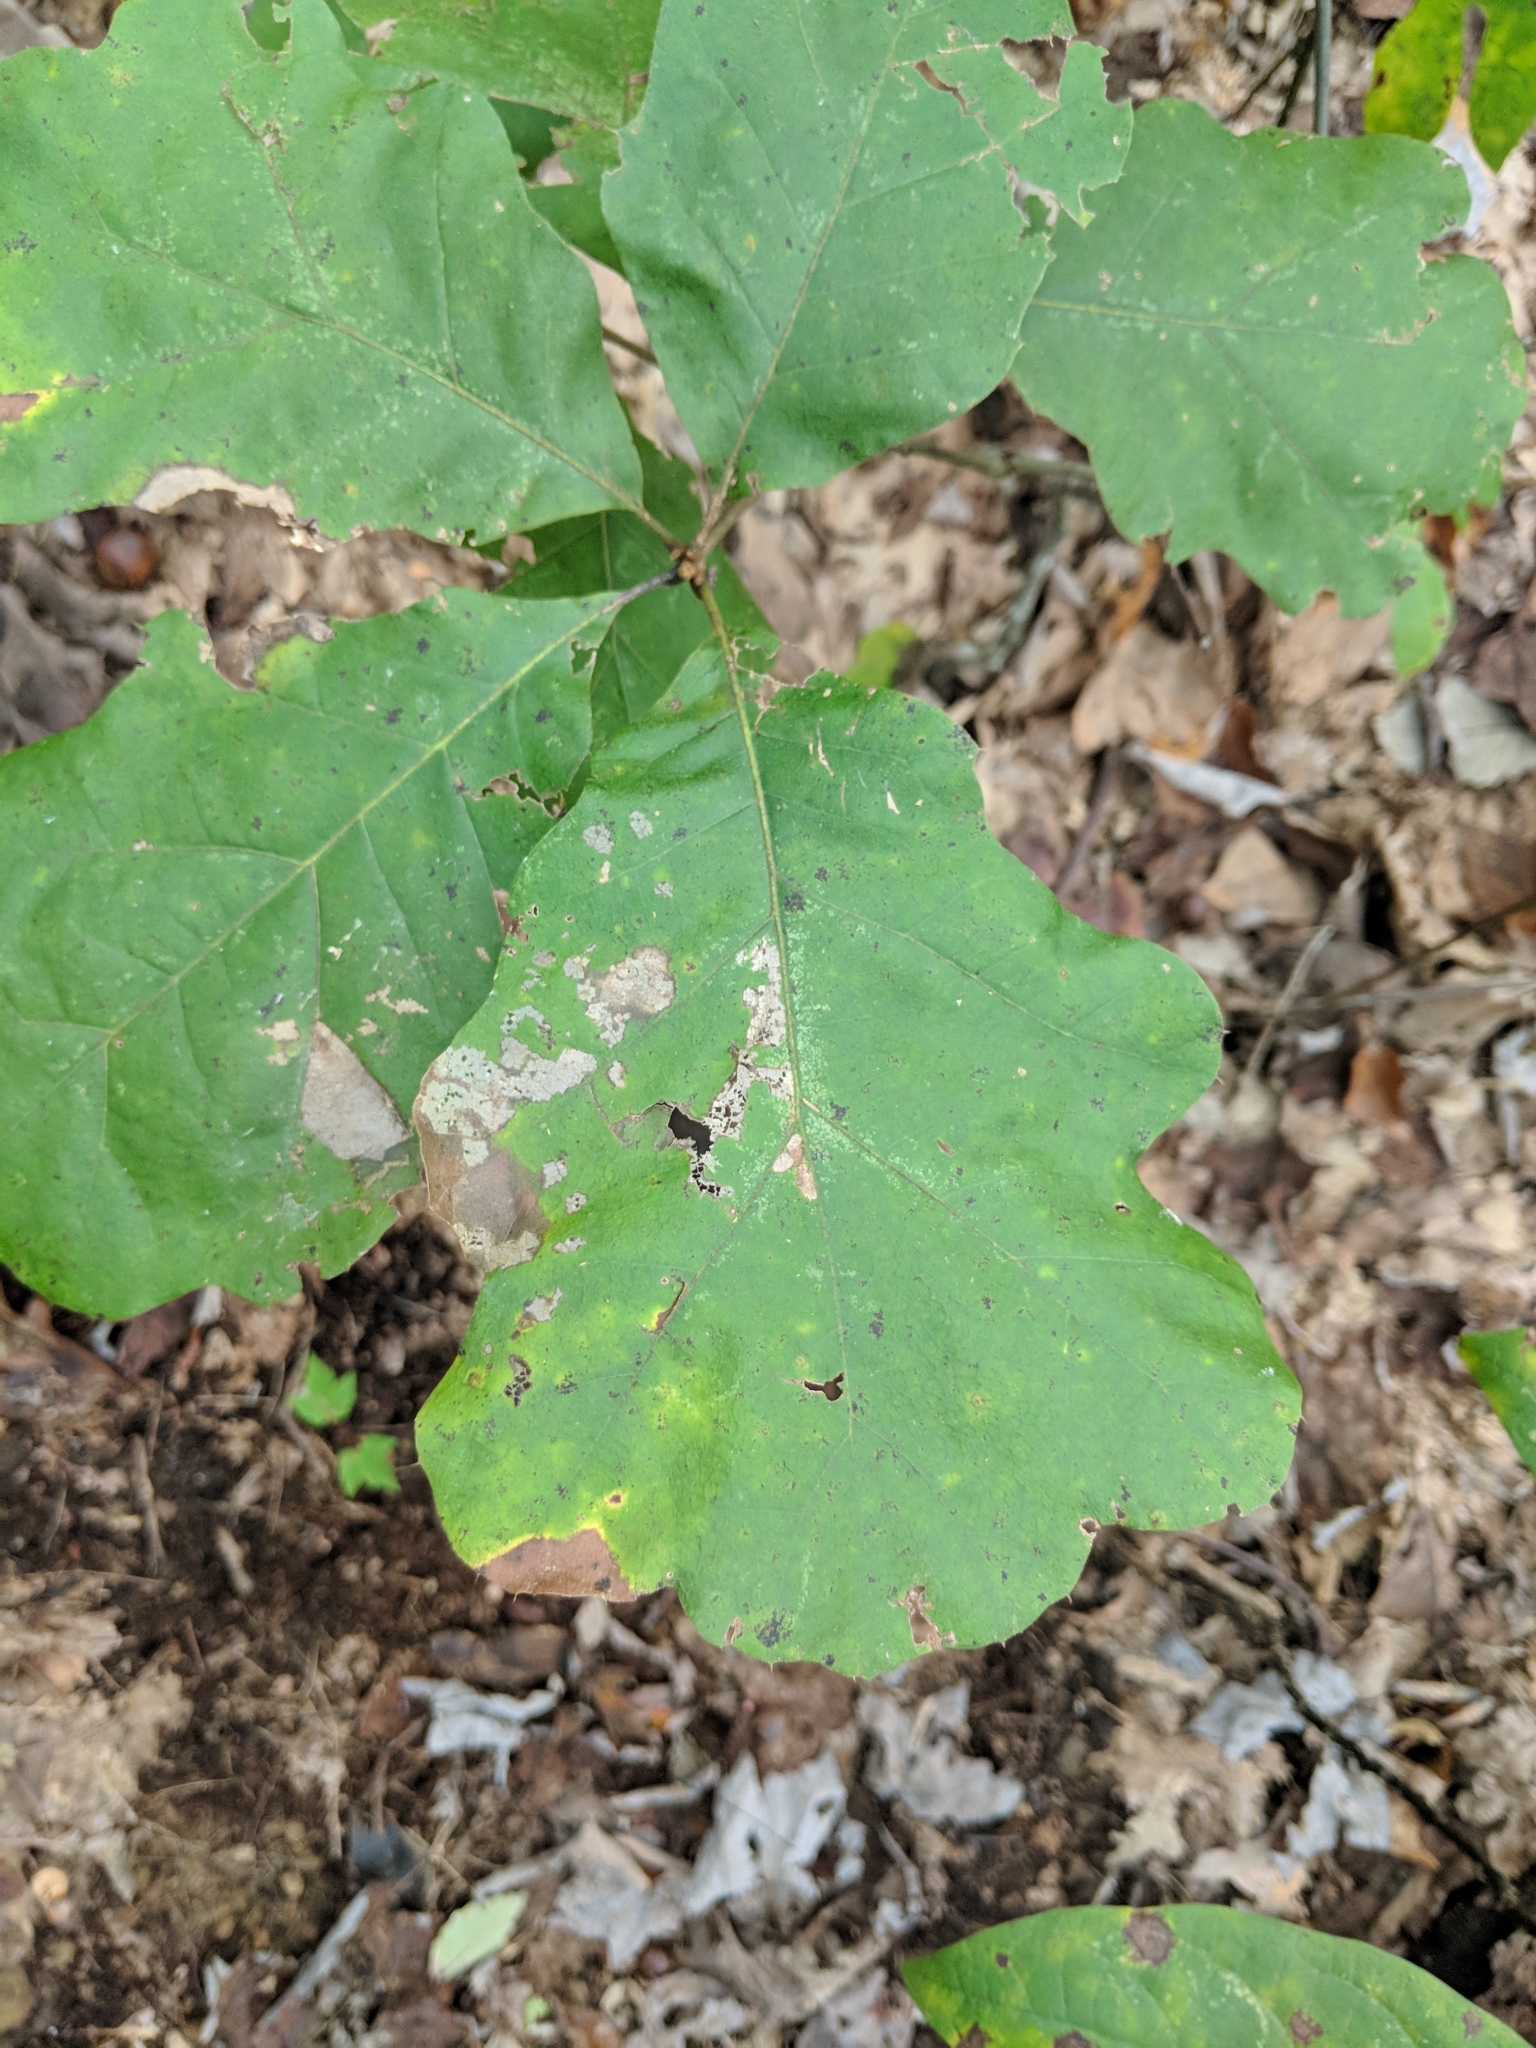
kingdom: Plantae
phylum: Tracheophyta
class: Magnoliopsida
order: Fagales
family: Fagaceae
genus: Quercus
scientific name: Quercus velutina
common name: Black oak
